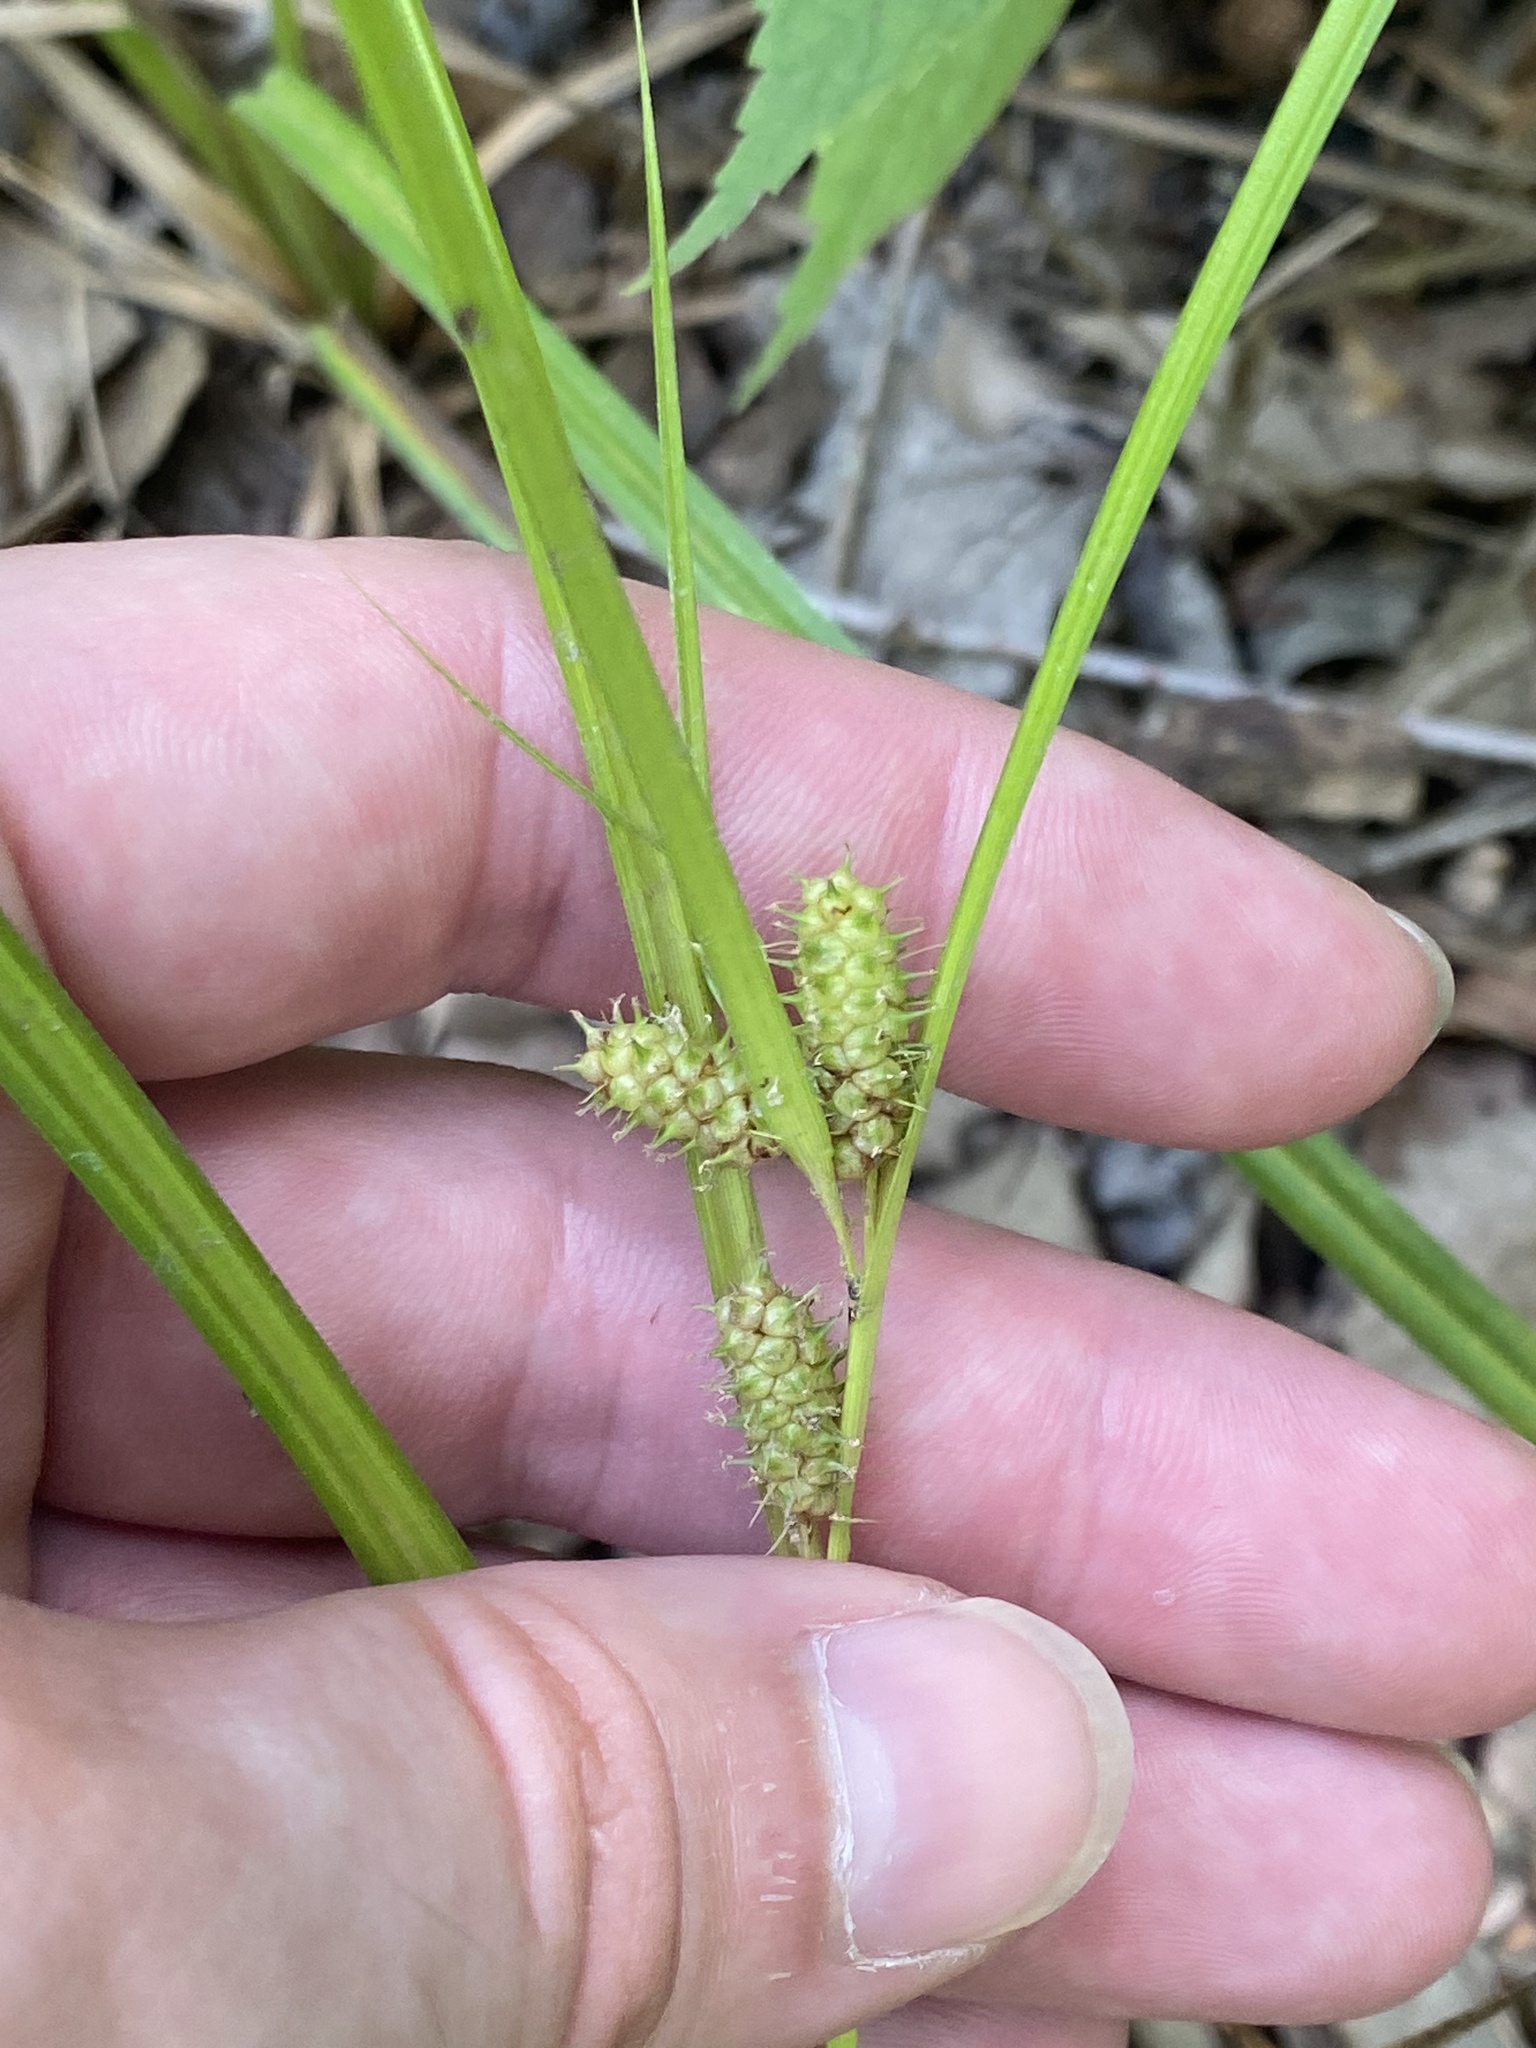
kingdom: Plantae
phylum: Tracheophyta
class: Liliopsida
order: Poales
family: Cyperaceae
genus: Carex
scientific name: Carex aureolensis
